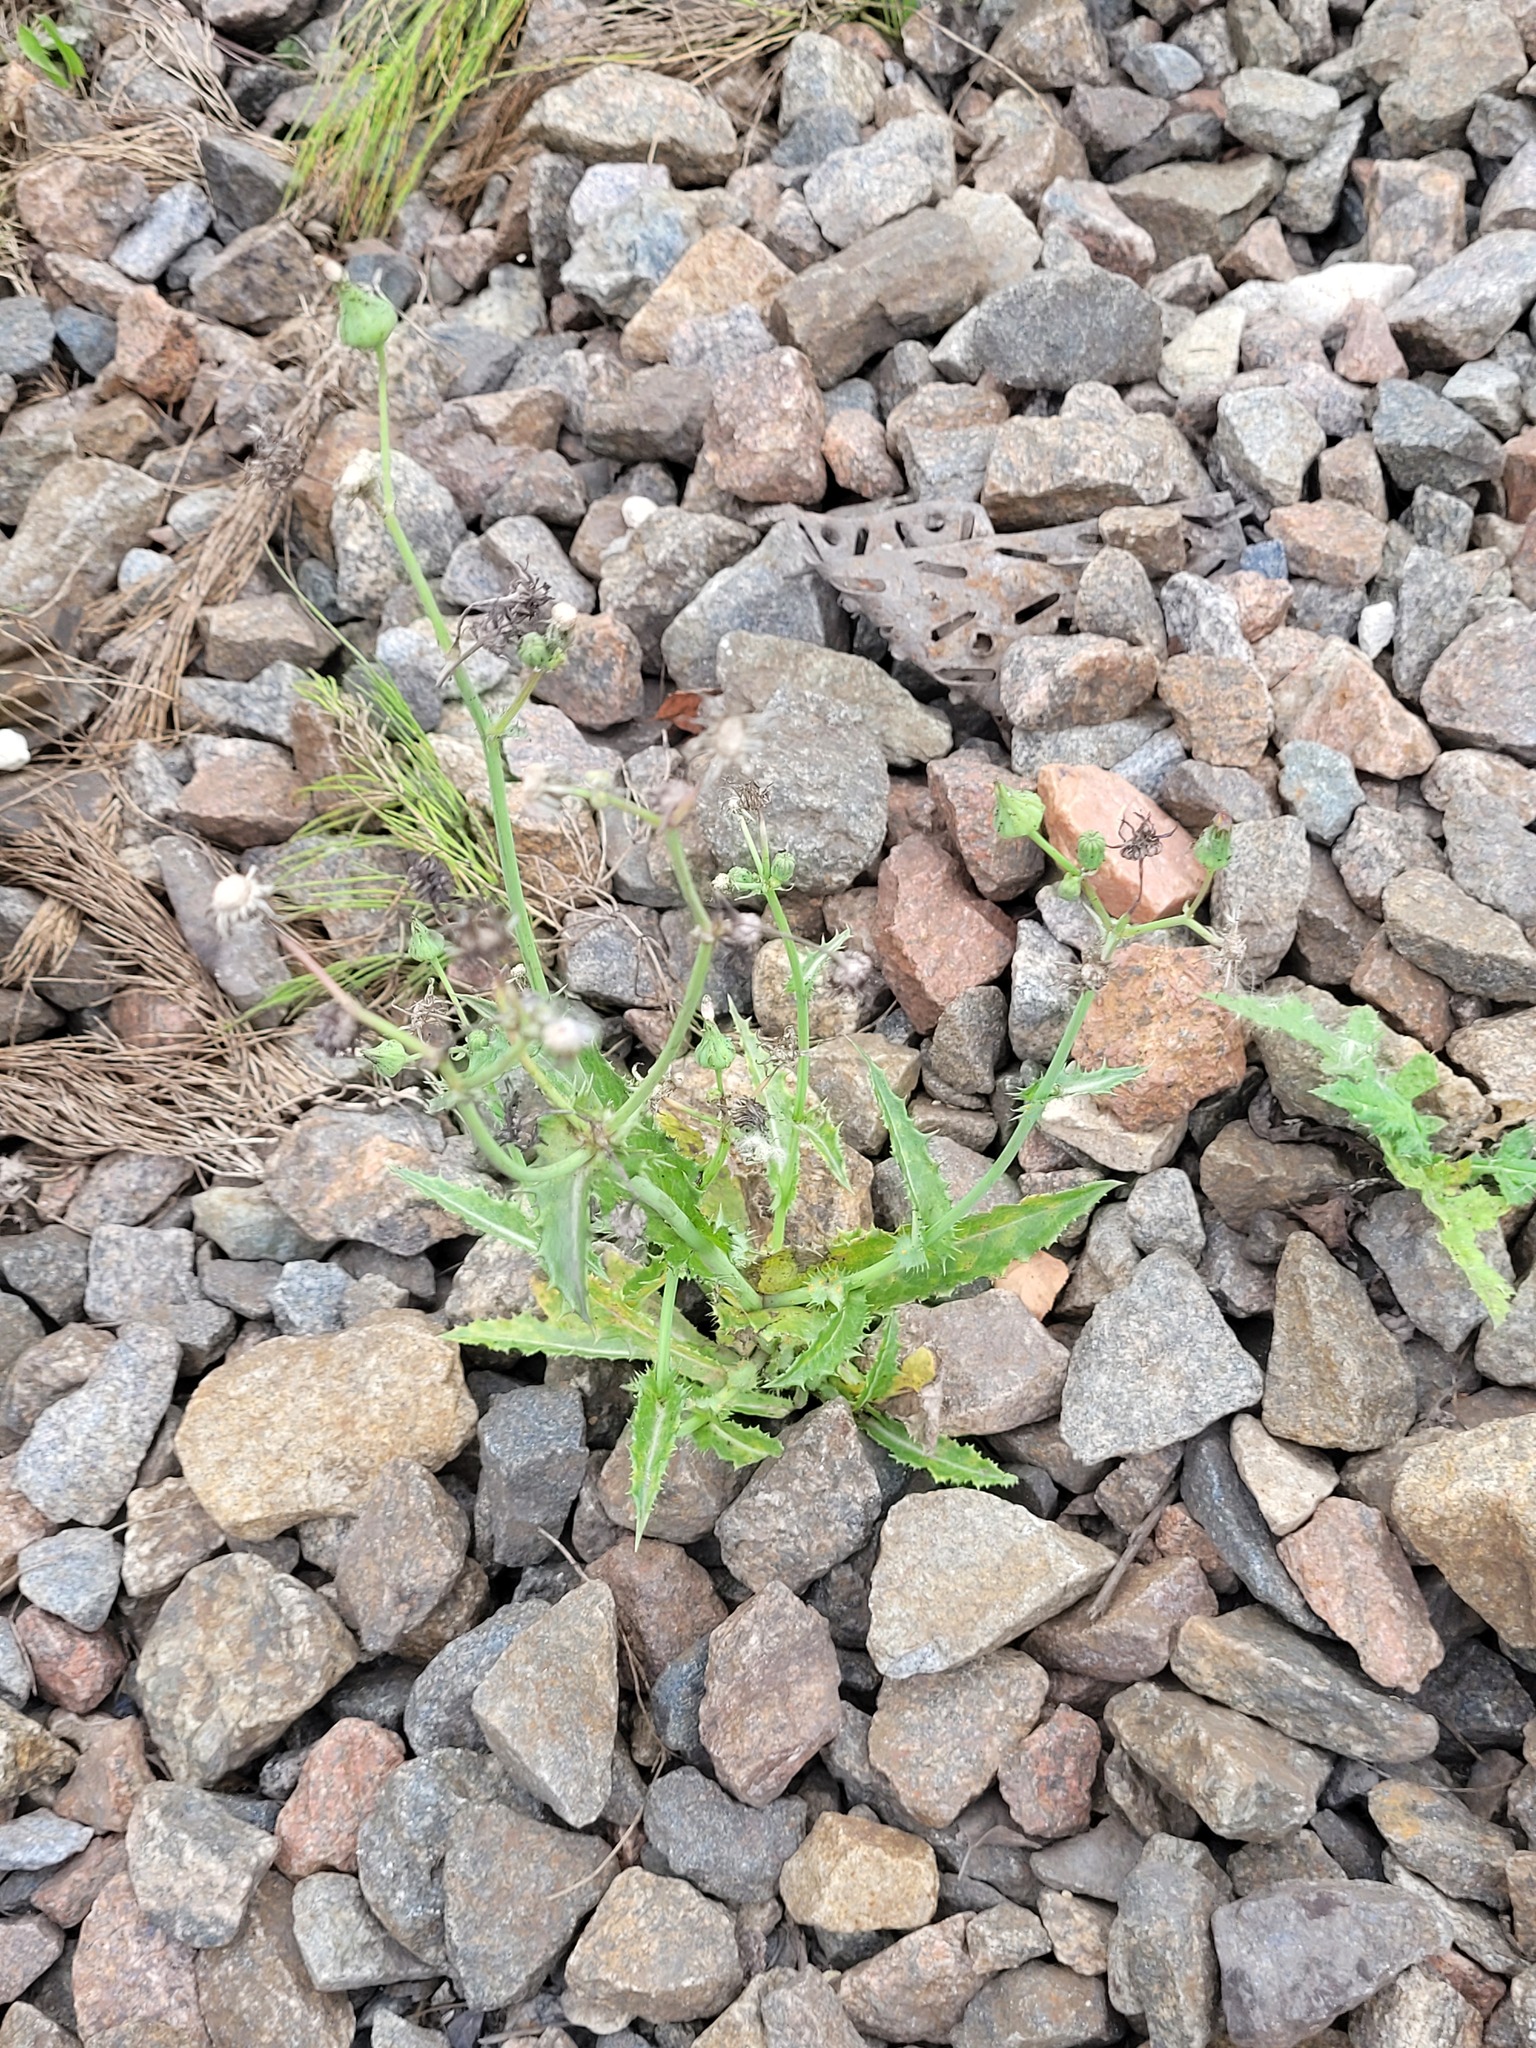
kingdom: Plantae
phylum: Tracheophyta
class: Magnoliopsida
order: Asterales
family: Asteraceae
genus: Sonchus
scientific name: Sonchus asper
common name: Prickly sow-thistle
